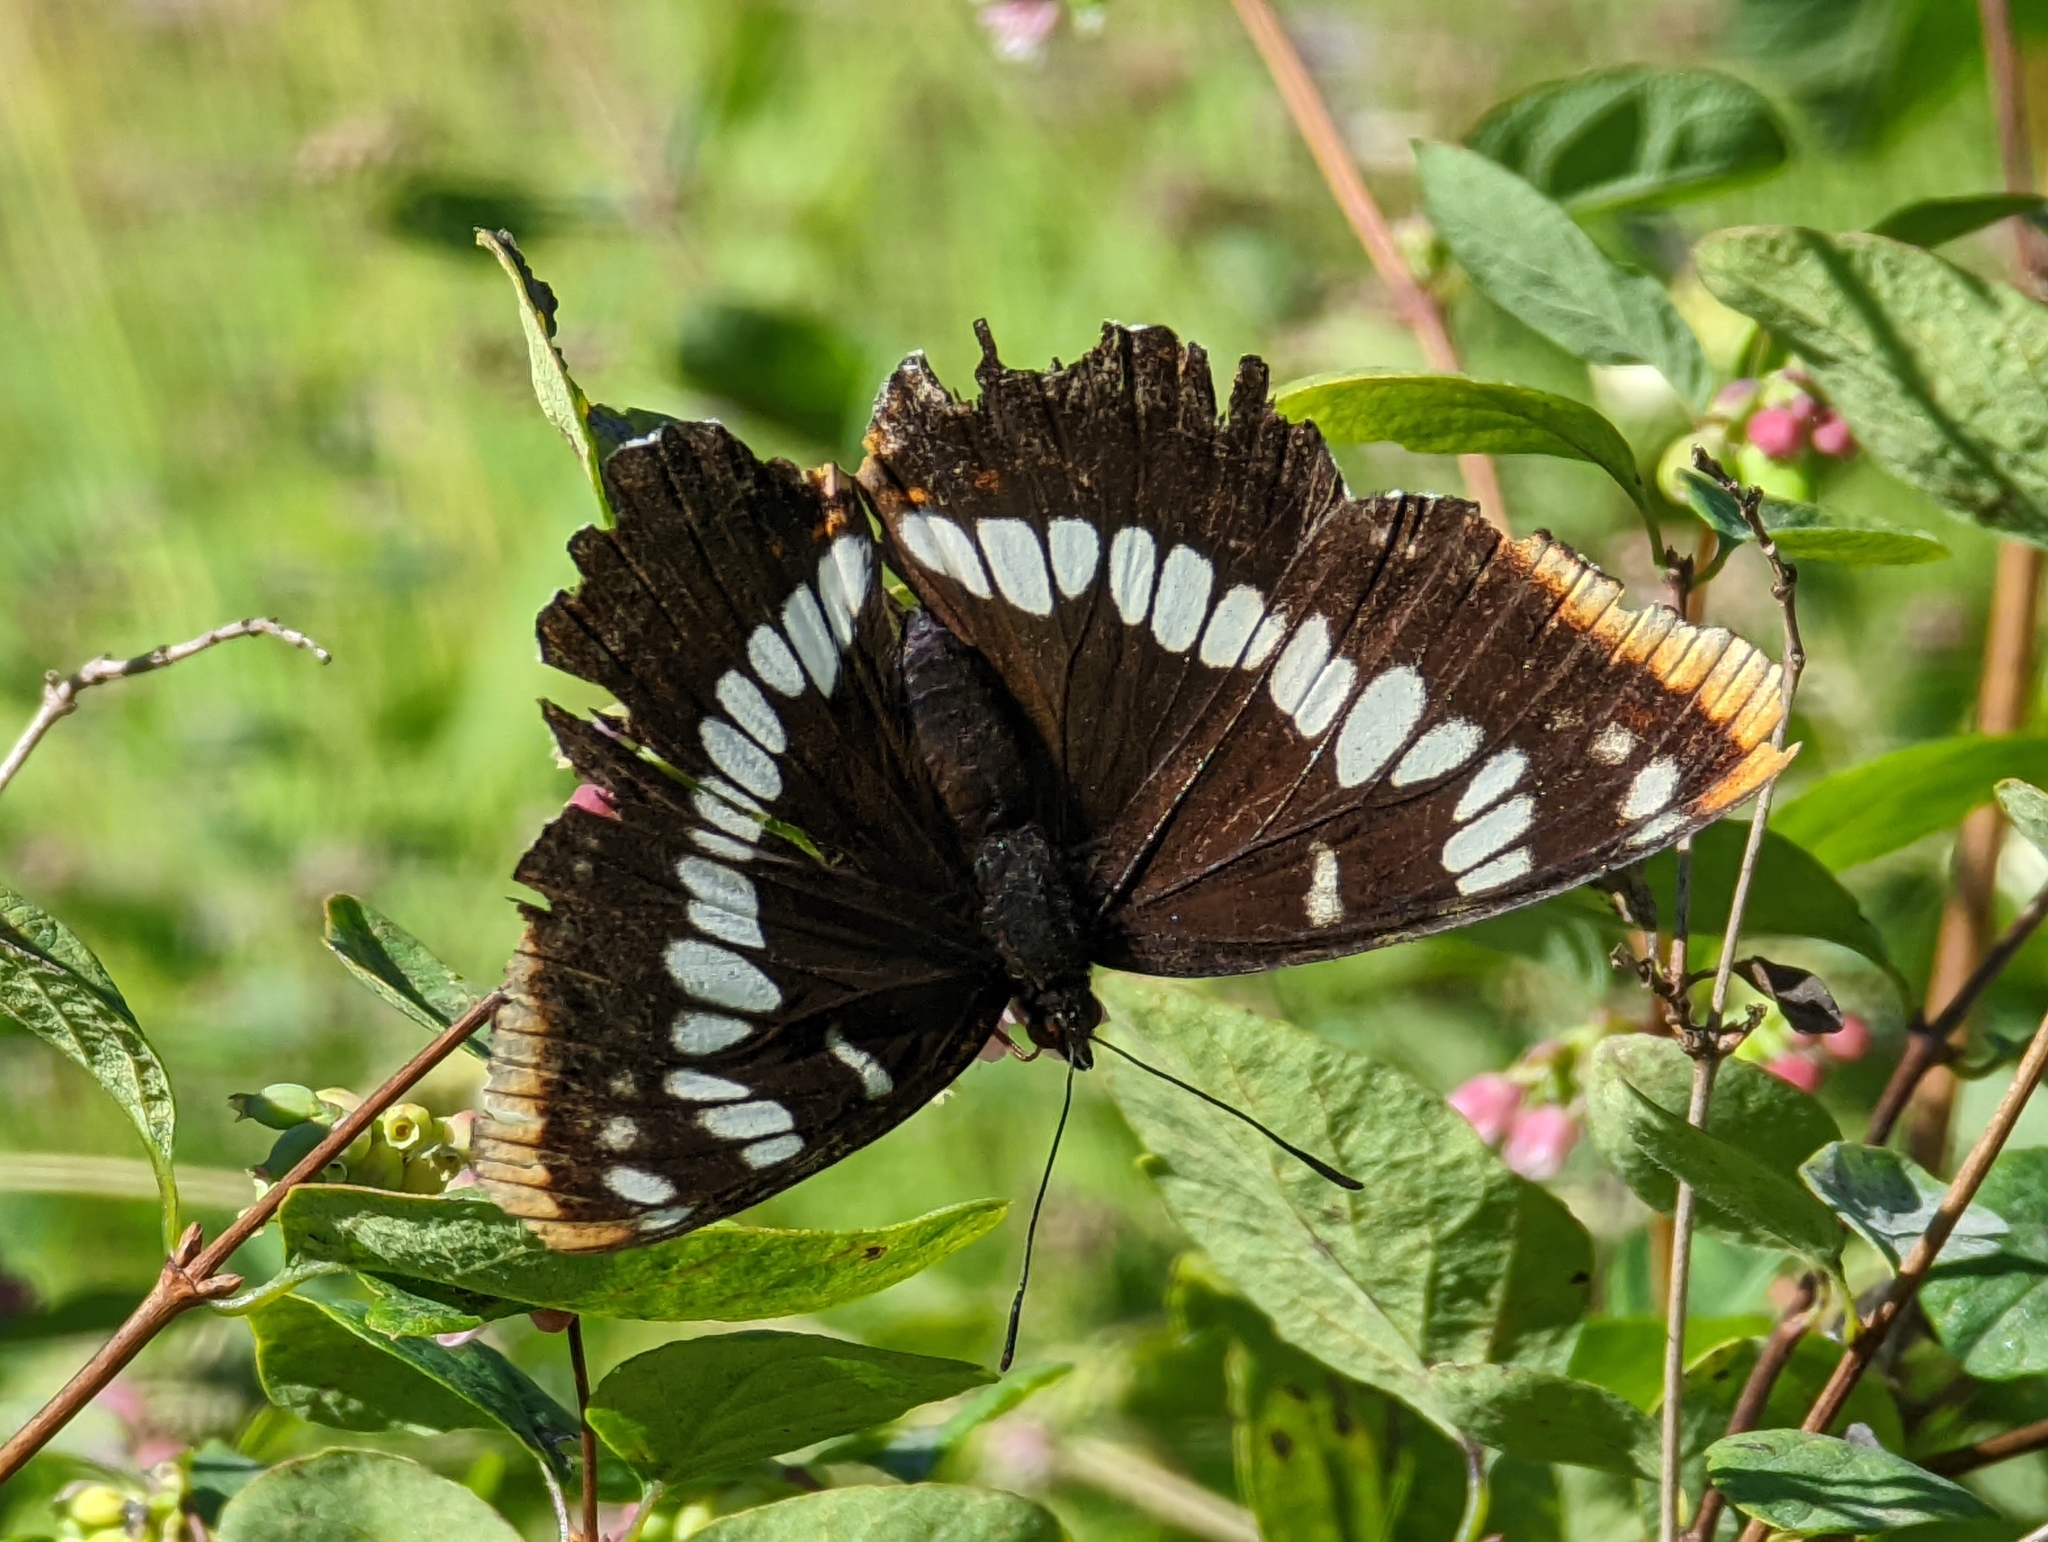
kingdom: Animalia
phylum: Arthropoda
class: Insecta
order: Lepidoptera
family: Nymphalidae
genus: Limenitis
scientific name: Limenitis lorquini
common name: Lorquin's admiral
